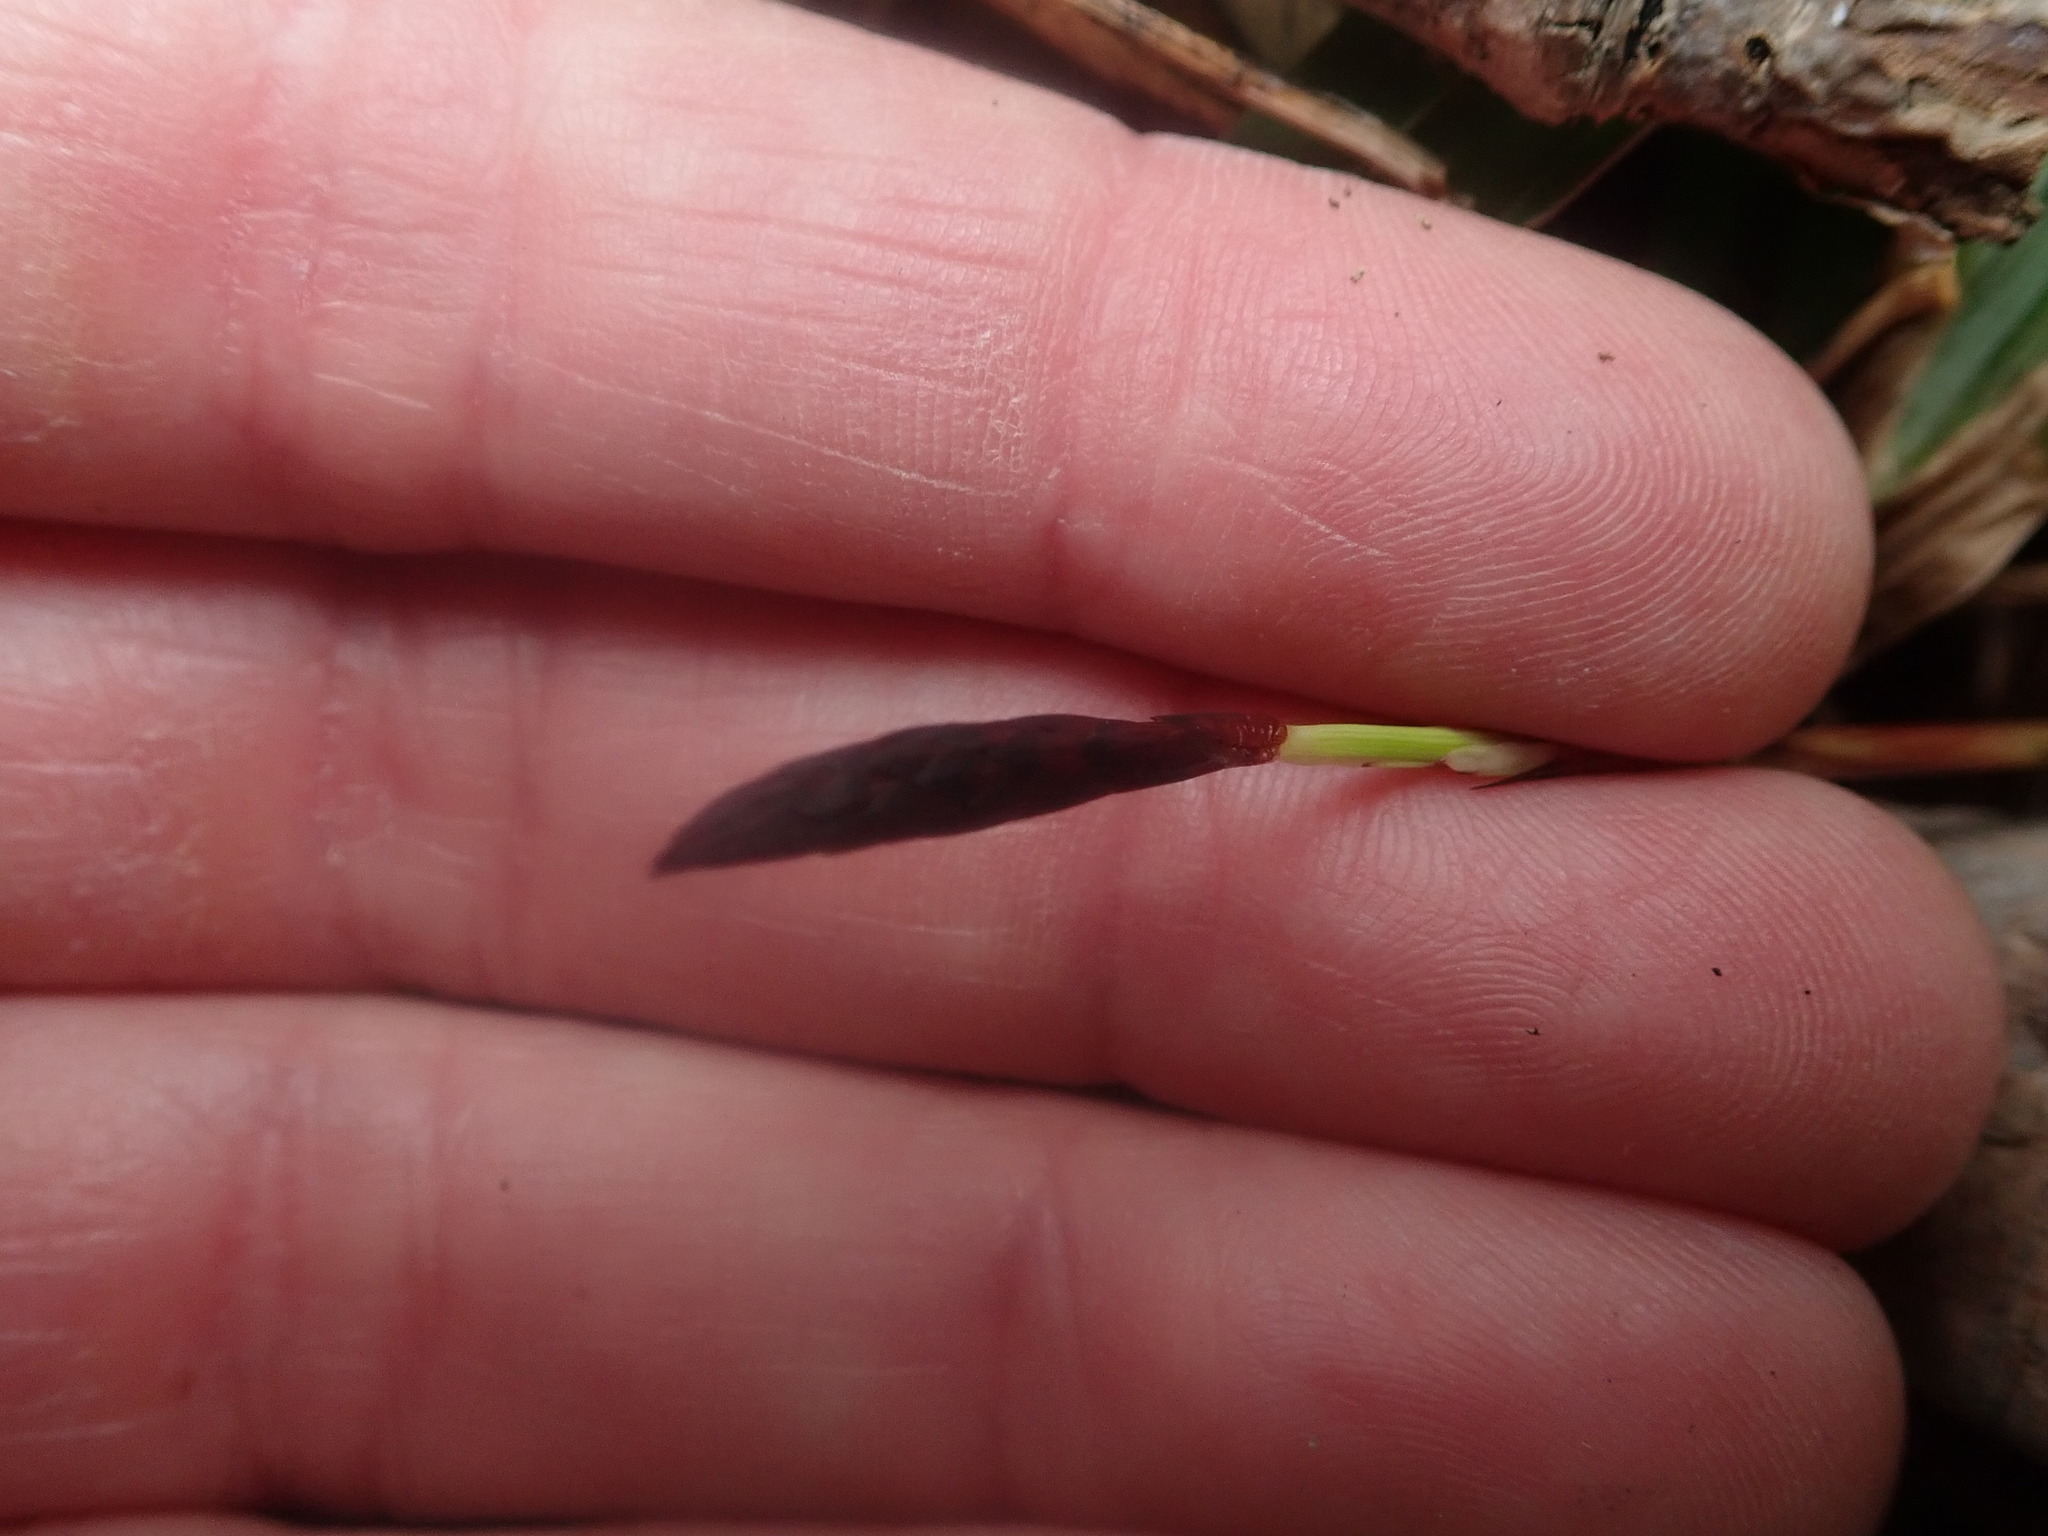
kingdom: Plantae
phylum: Tracheophyta
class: Liliopsida
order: Poales
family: Cyperaceae
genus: Carex
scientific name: Carex plantaginea
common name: Plantain-leaved sedge
